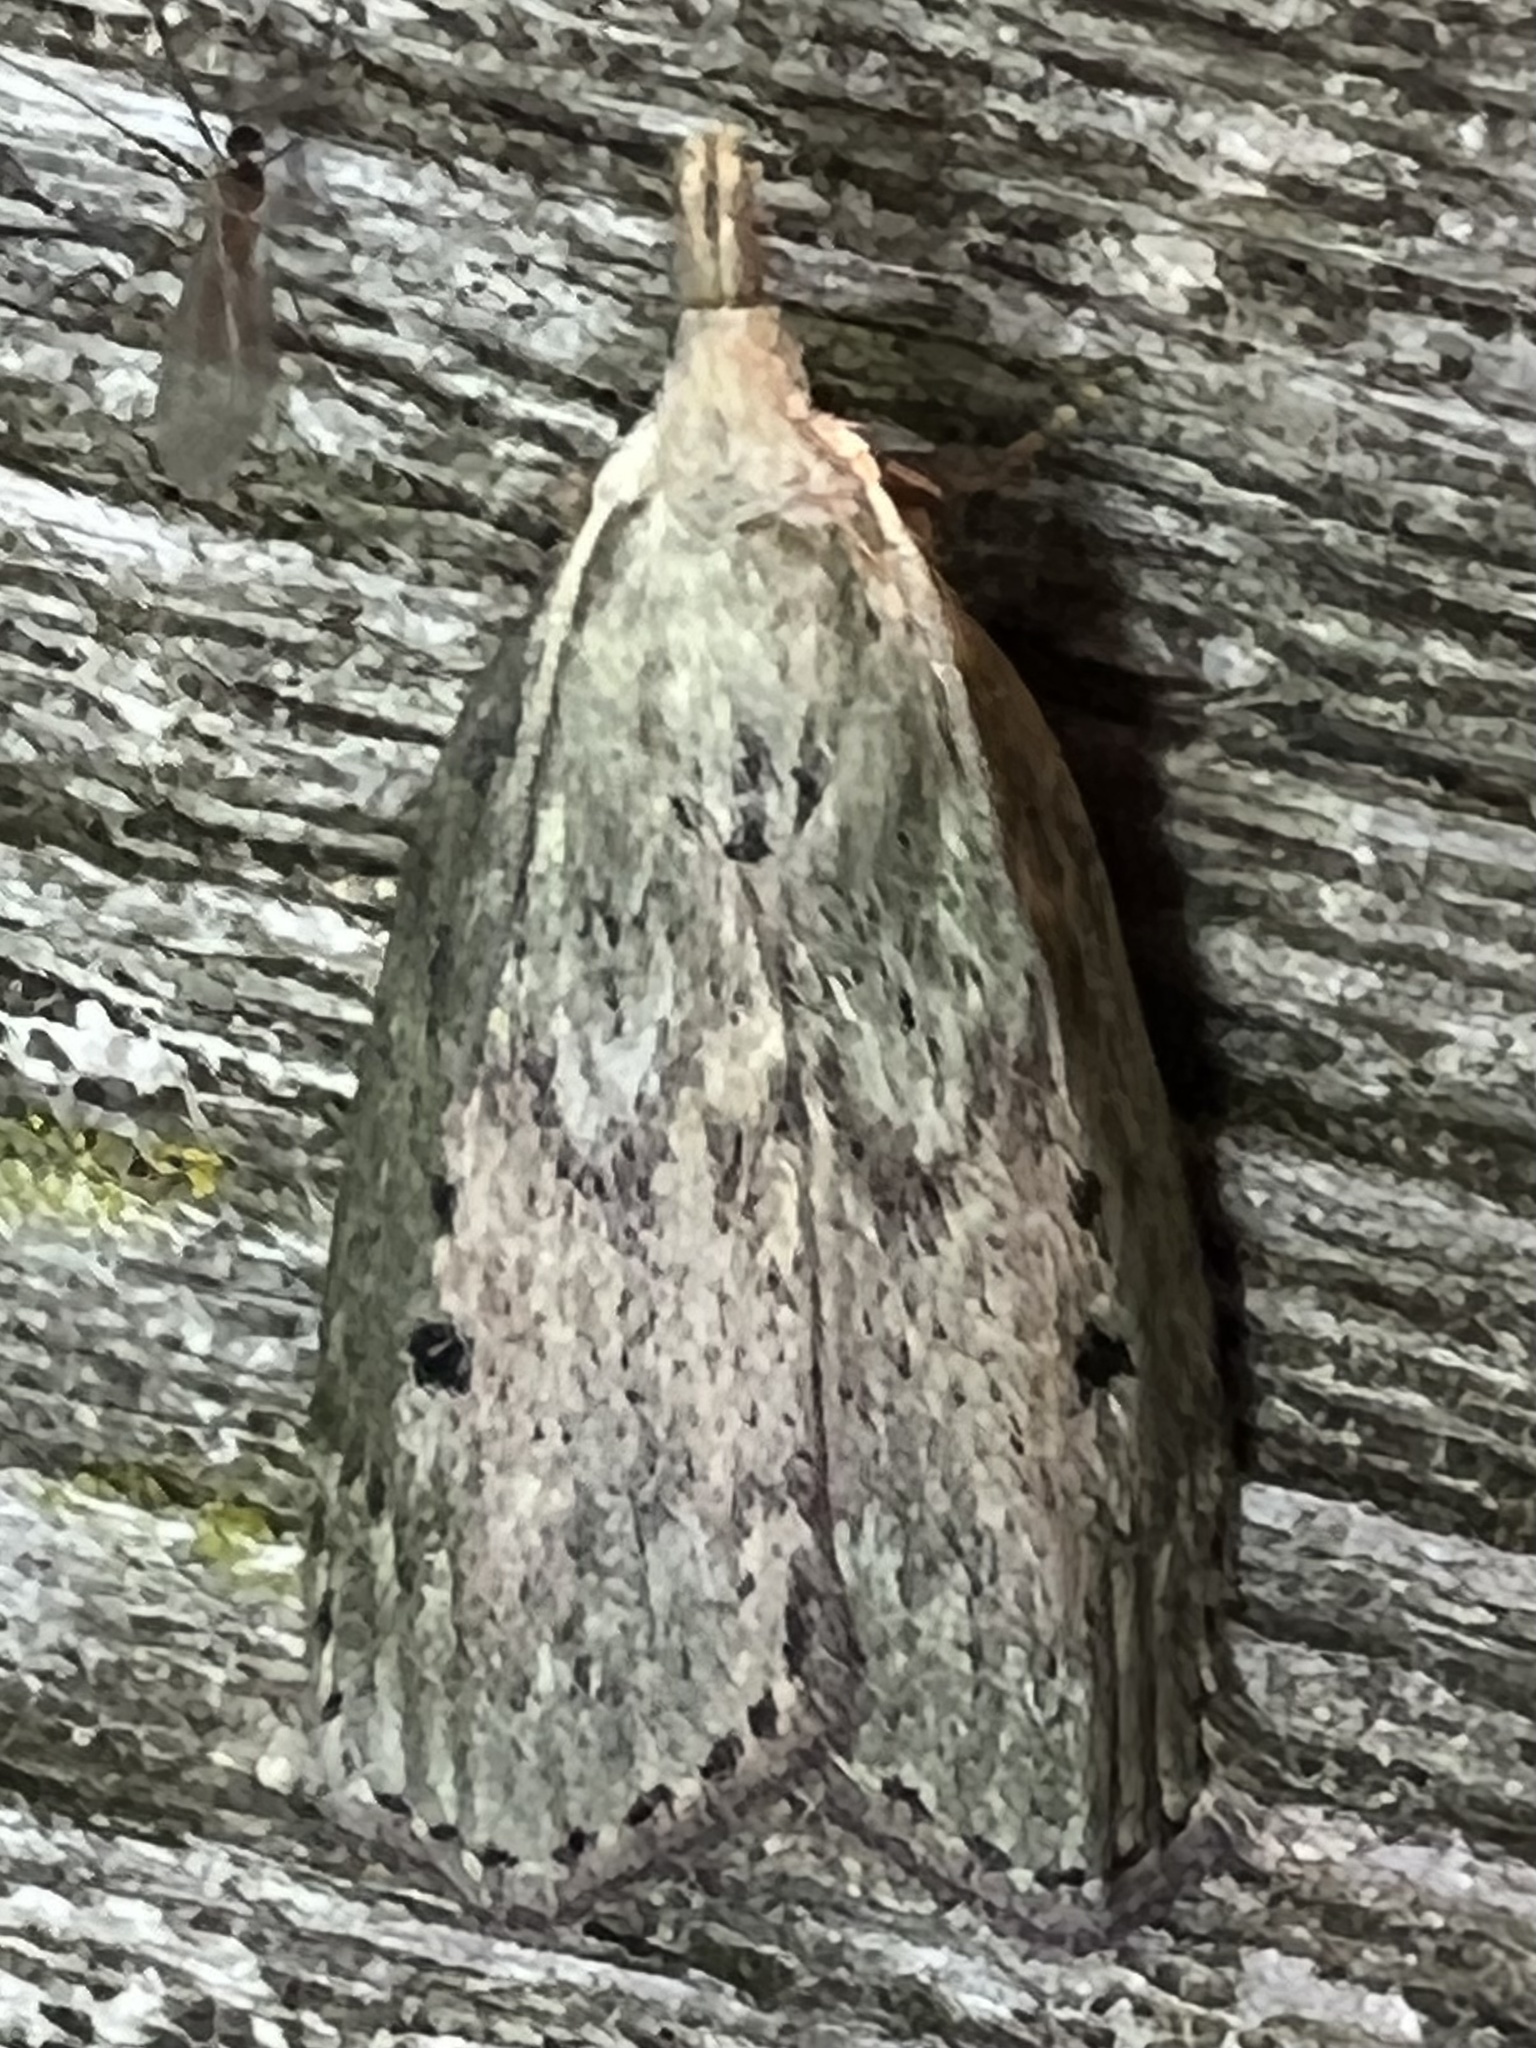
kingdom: Animalia
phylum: Arthropoda
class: Insecta
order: Lepidoptera
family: Pyralidae
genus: Aphomia
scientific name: Aphomia sociella
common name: Bee moth
